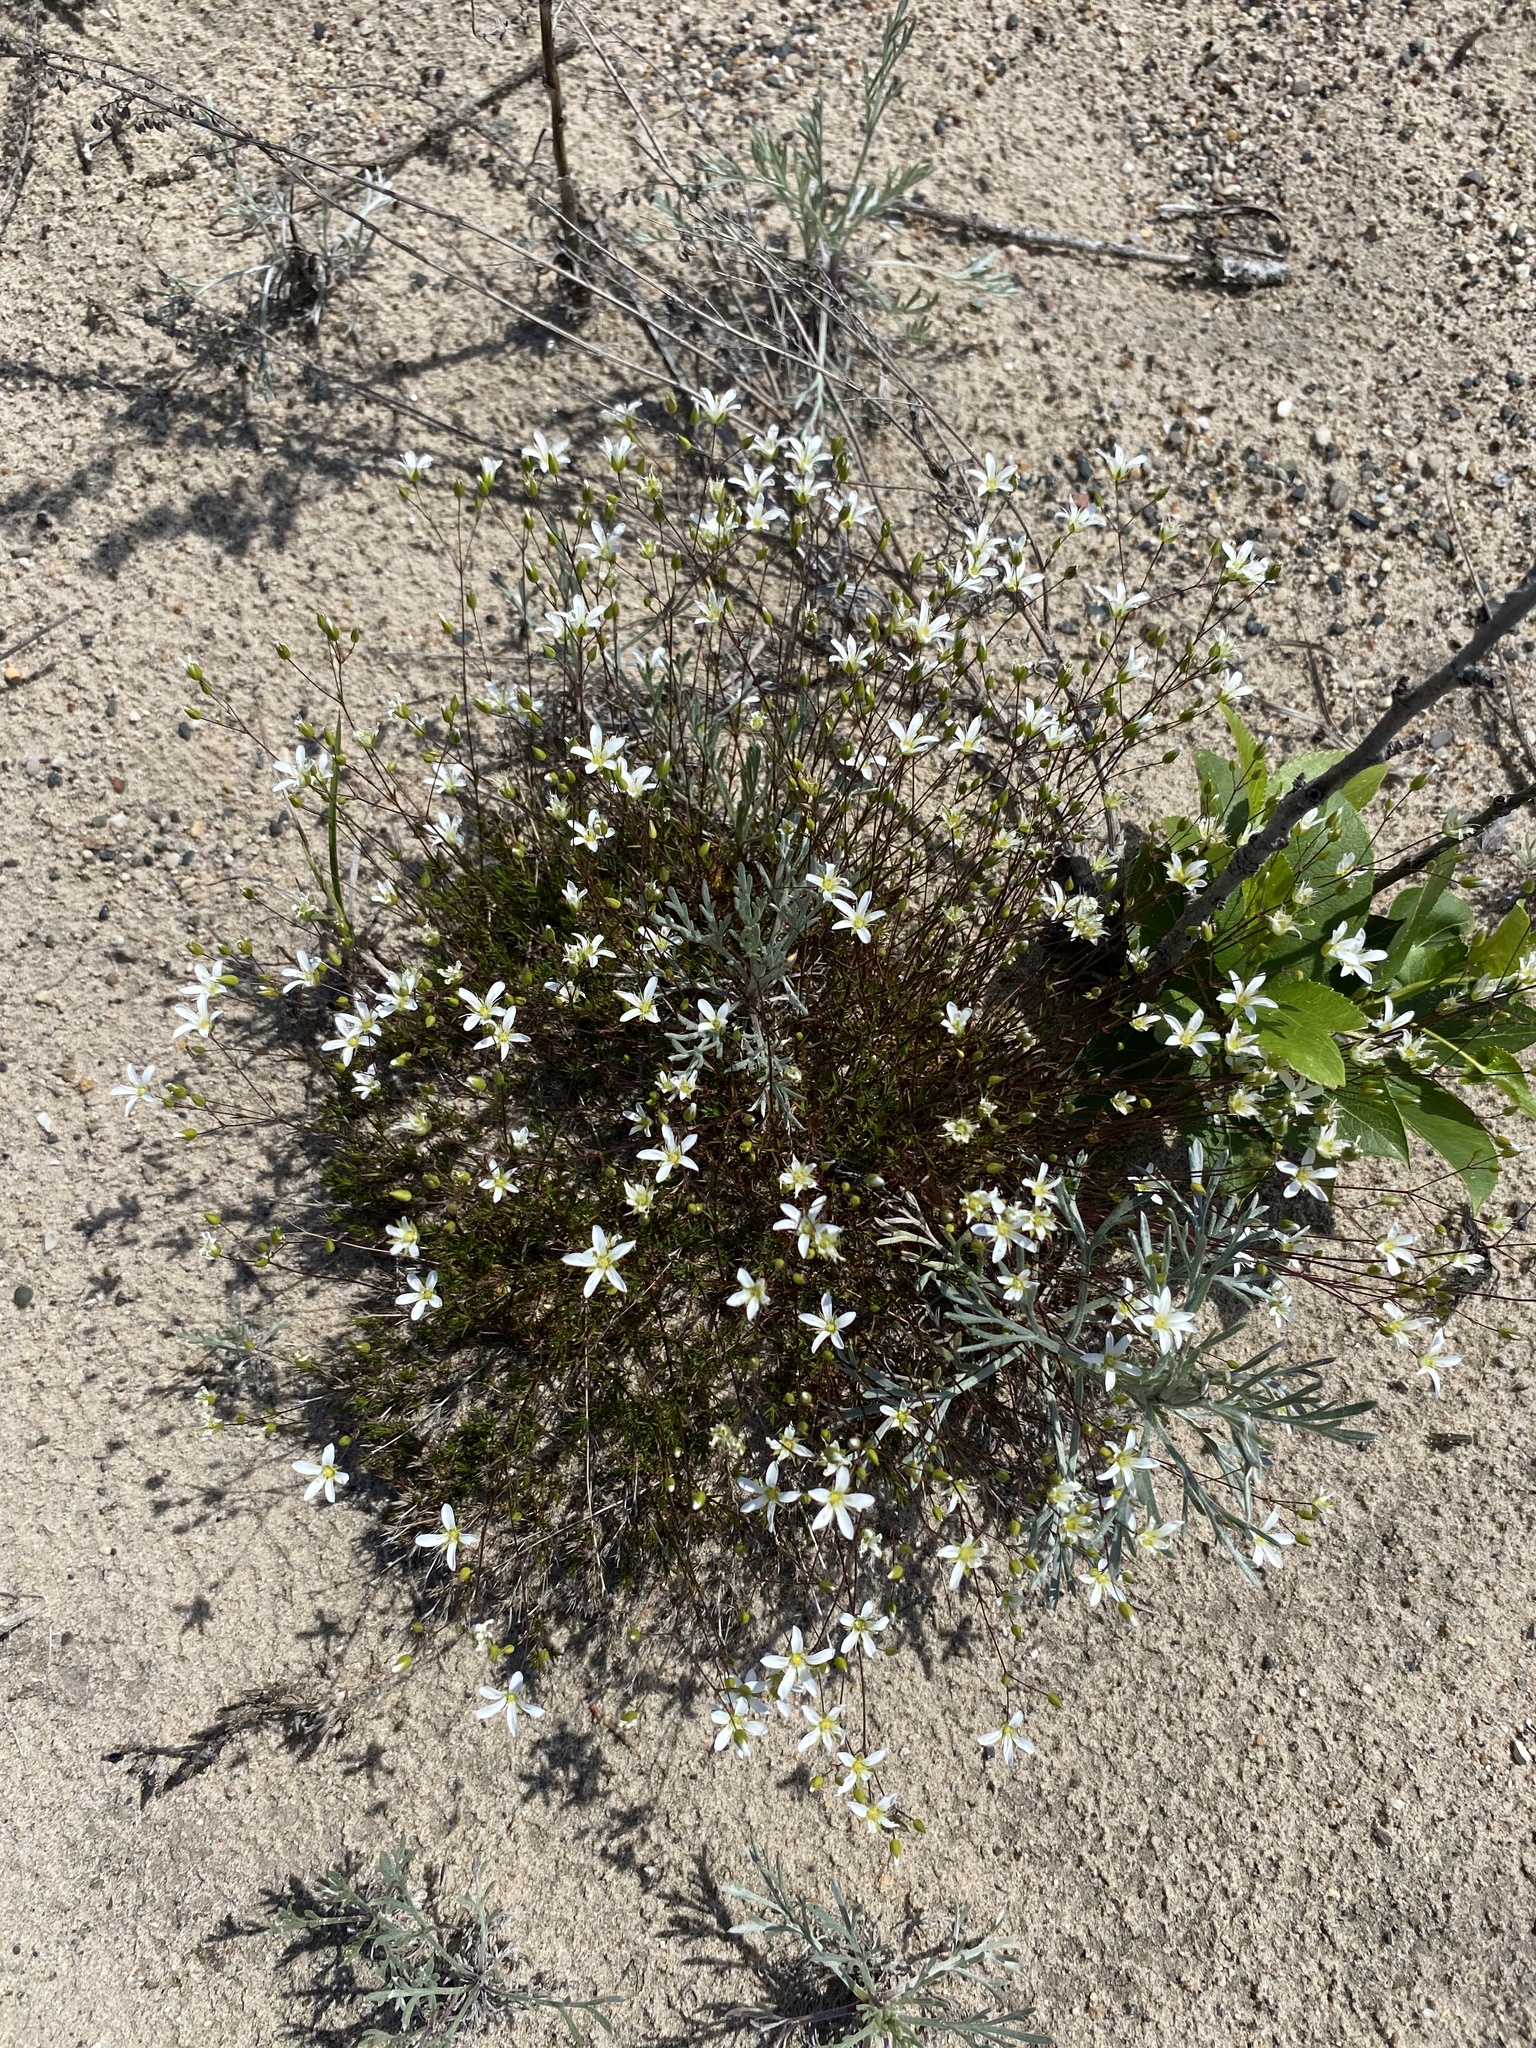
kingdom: Plantae
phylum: Tracheophyta
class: Magnoliopsida
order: Caryophyllales
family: Caryophyllaceae
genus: Sabulina
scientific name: Sabulina michauxii
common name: Michaux's stitchwort
